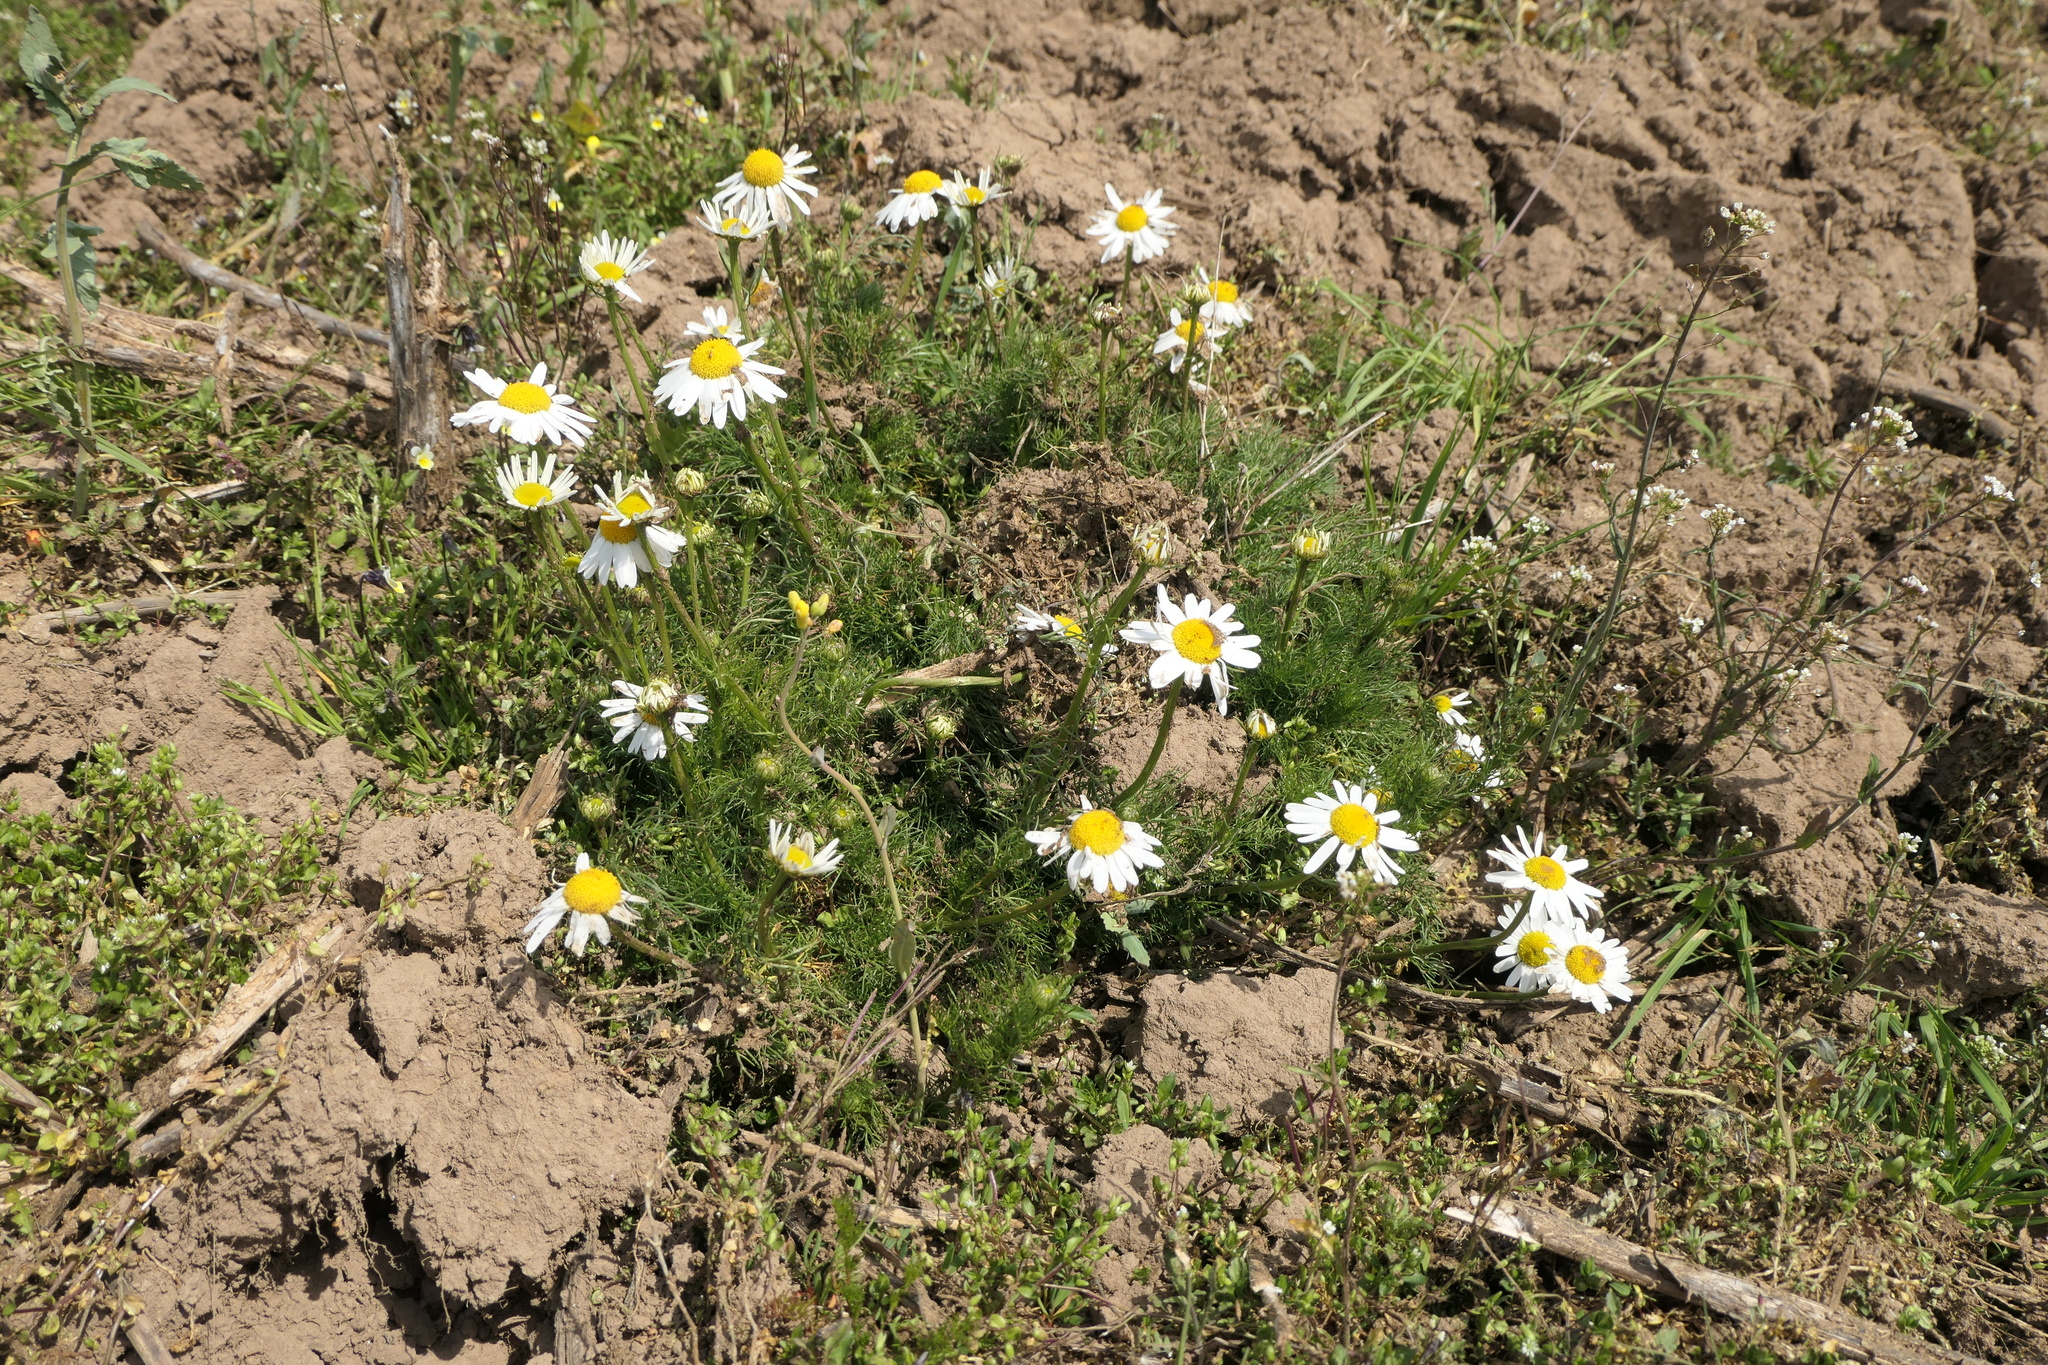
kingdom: Plantae
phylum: Tracheophyta
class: Magnoliopsida
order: Asterales
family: Asteraceae
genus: Tripleurospermum
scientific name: Tripleurospermum inodorum
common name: Scentless mayweed
